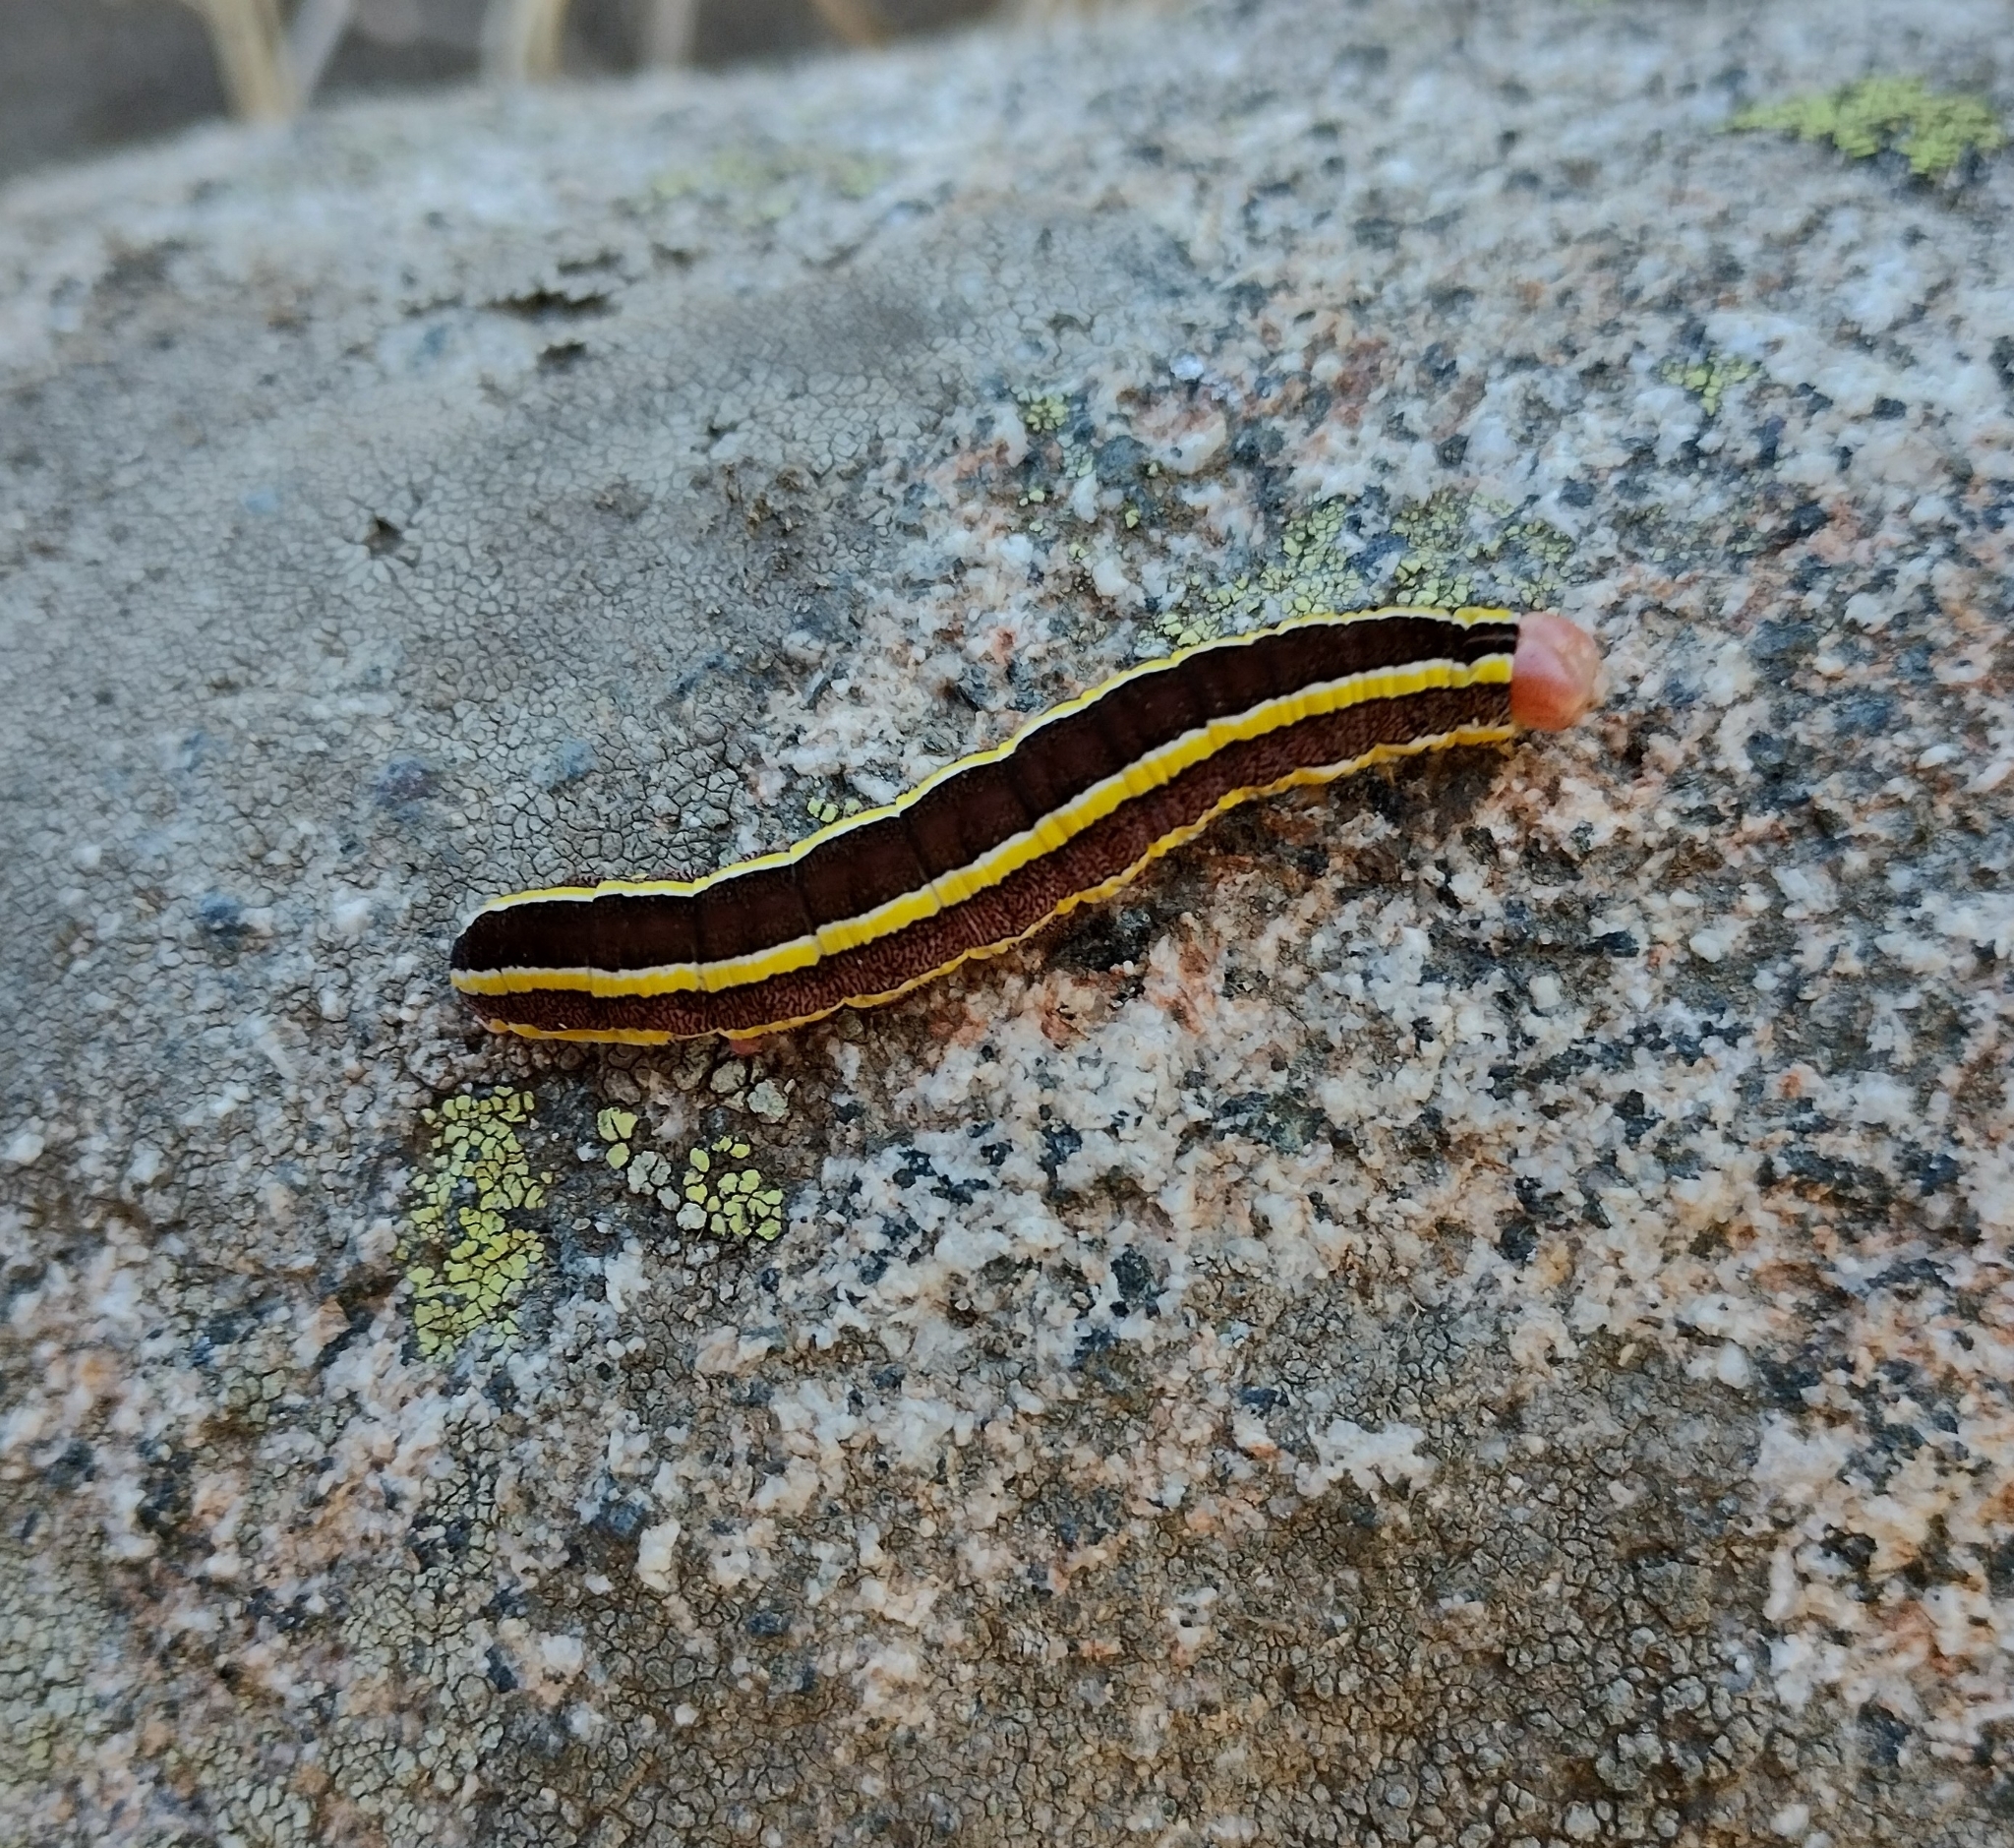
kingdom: Animalia
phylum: Arthropoda
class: Insecta
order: Lepidoptera
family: Noctuidae
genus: Ceramica
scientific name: Ceramica pisi
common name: Broom moth
